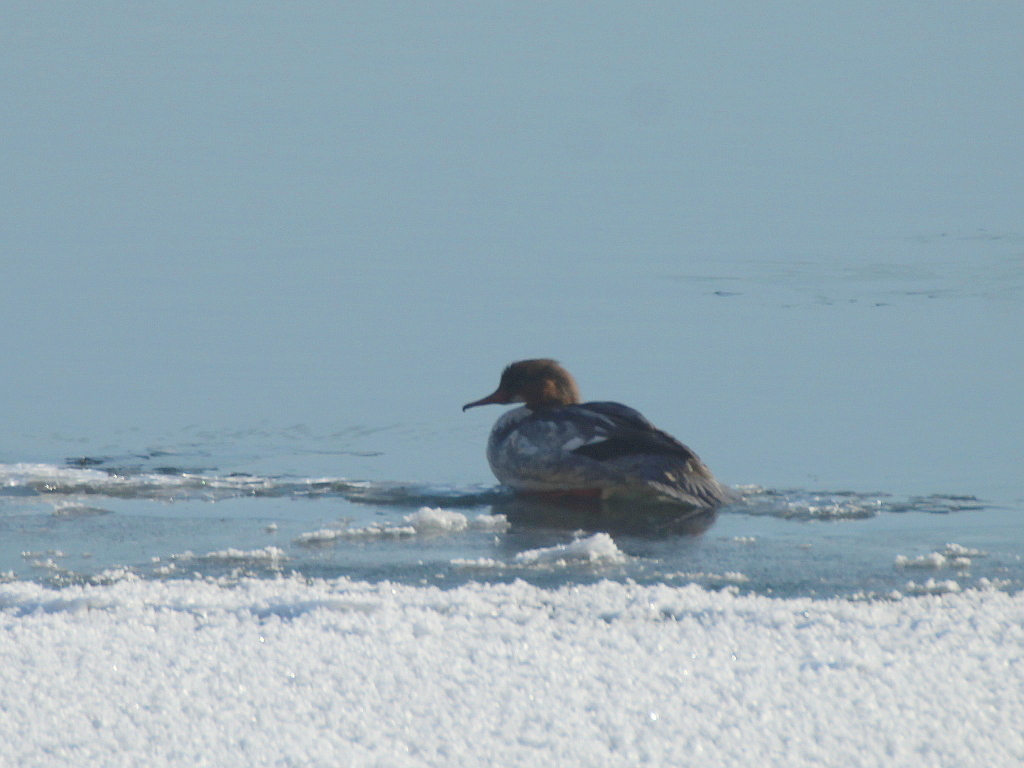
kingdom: Animalia
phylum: Chordata
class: Aves
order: Anseriformes
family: Anatidae
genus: Mergus
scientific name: Mergus merganser
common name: Common merganser
